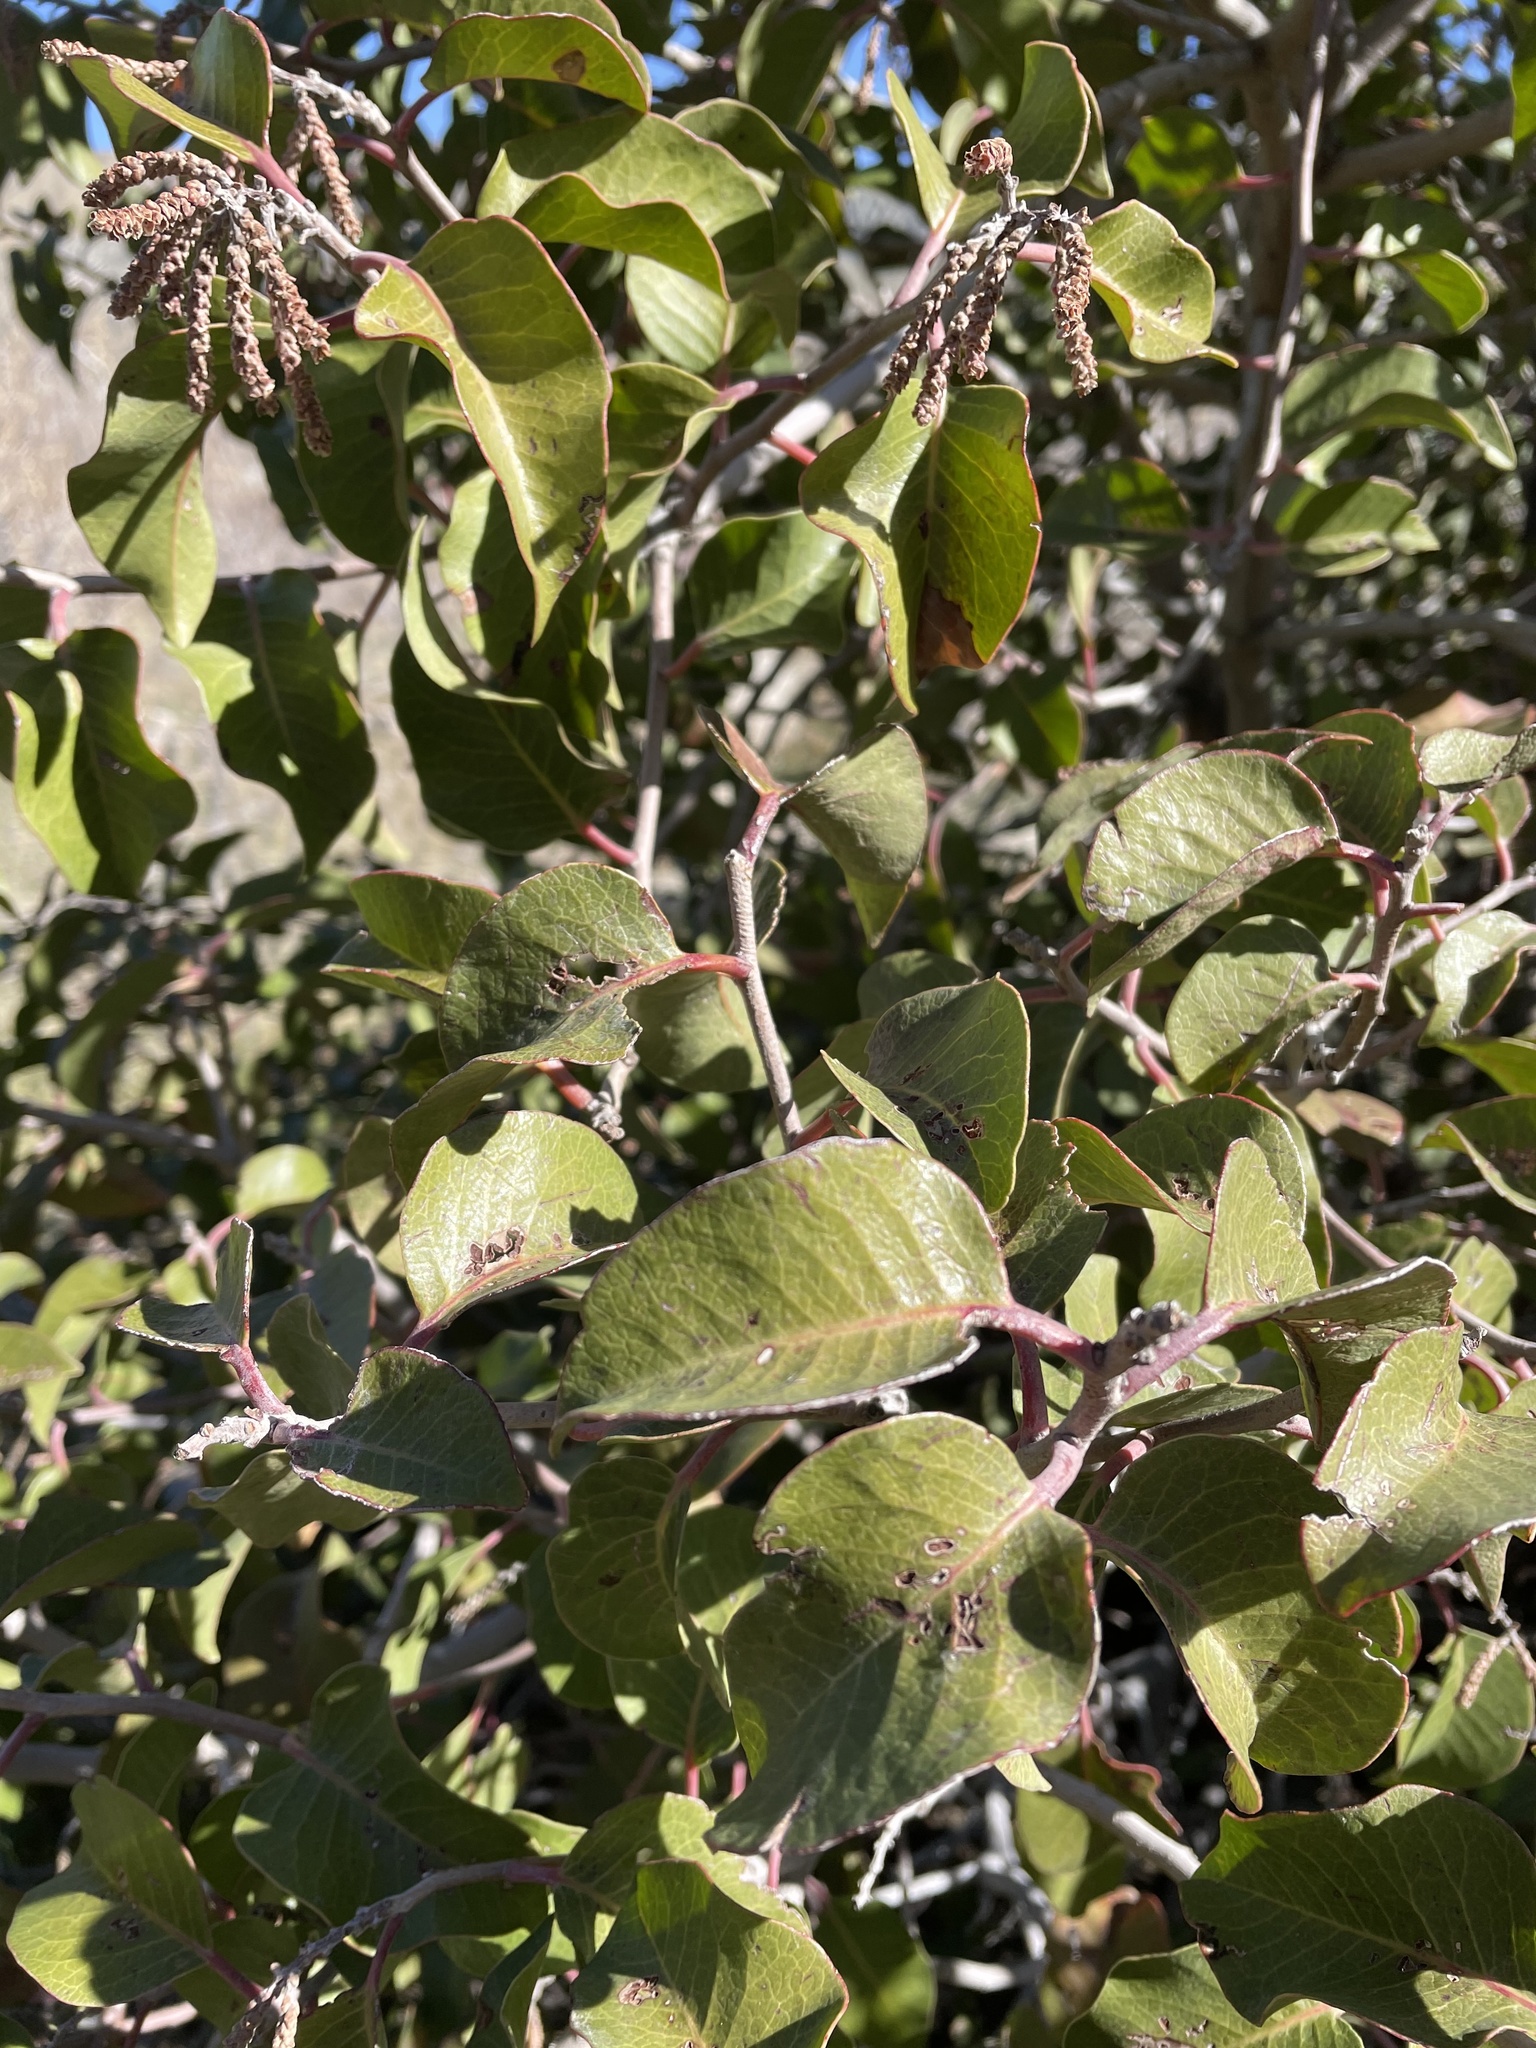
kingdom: Plantae
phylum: Tracheophyta
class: Magnoliopsida
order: Sapindales
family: Anacardiaceae
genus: Rhus
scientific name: Rhus ovata
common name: Sugar sumac
